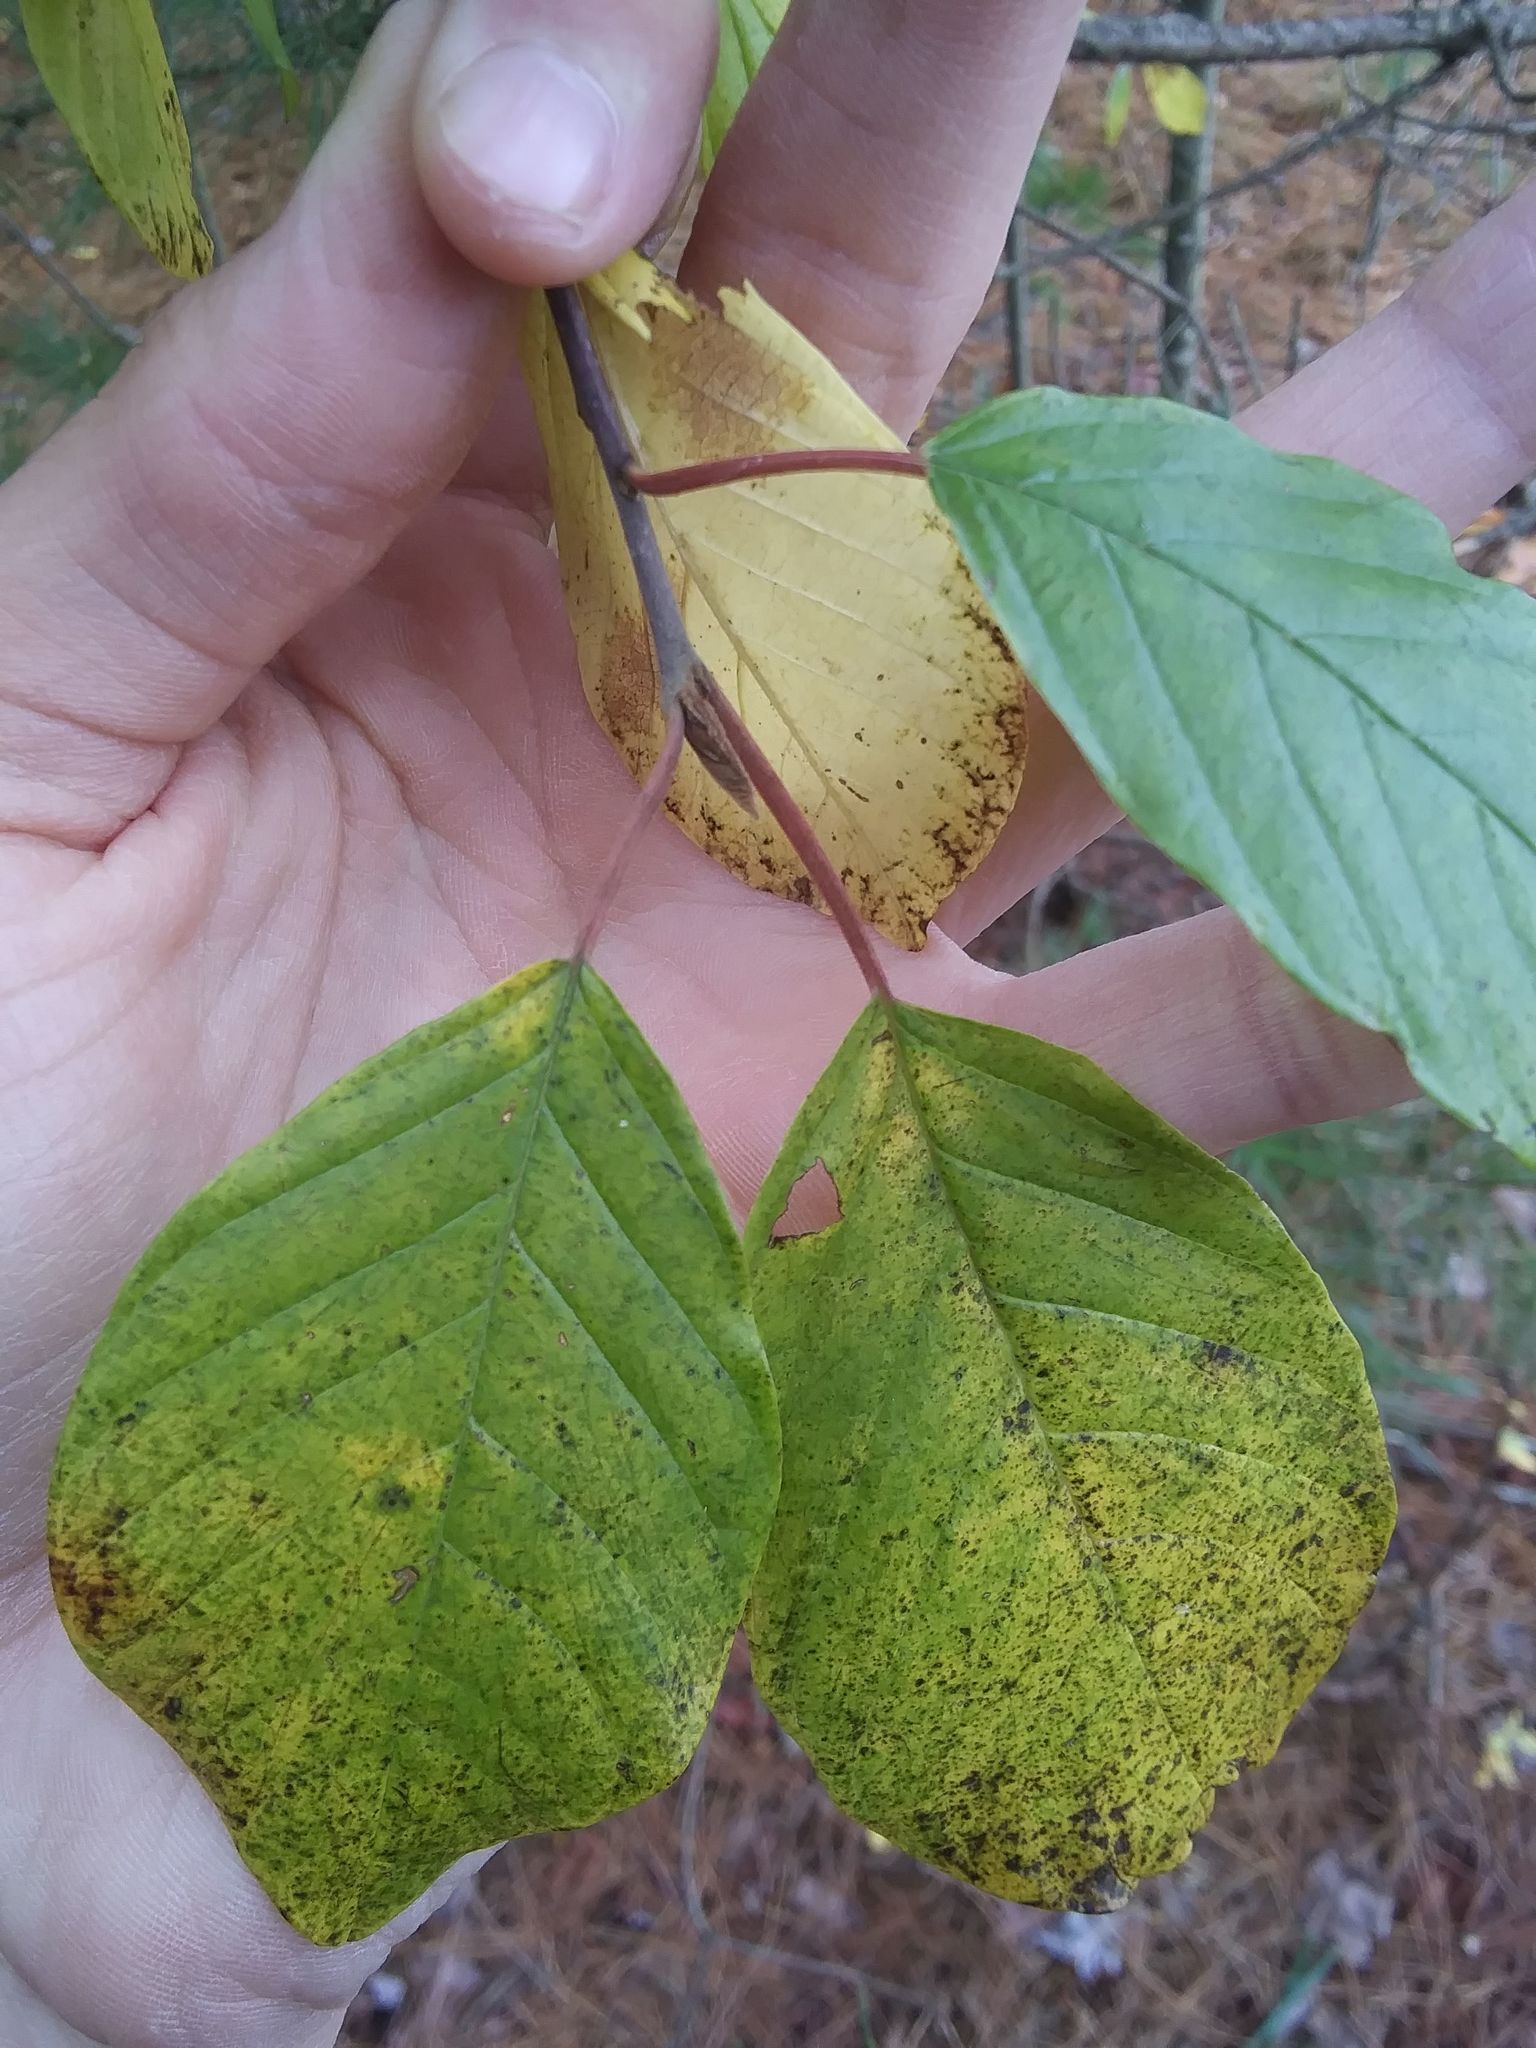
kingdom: Plantae
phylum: Tracheophyta
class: Magnoliopsida
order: Rosales
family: Rhamnaceae
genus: Frangula
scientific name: Frangula alnus
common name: Alder buckthorn
